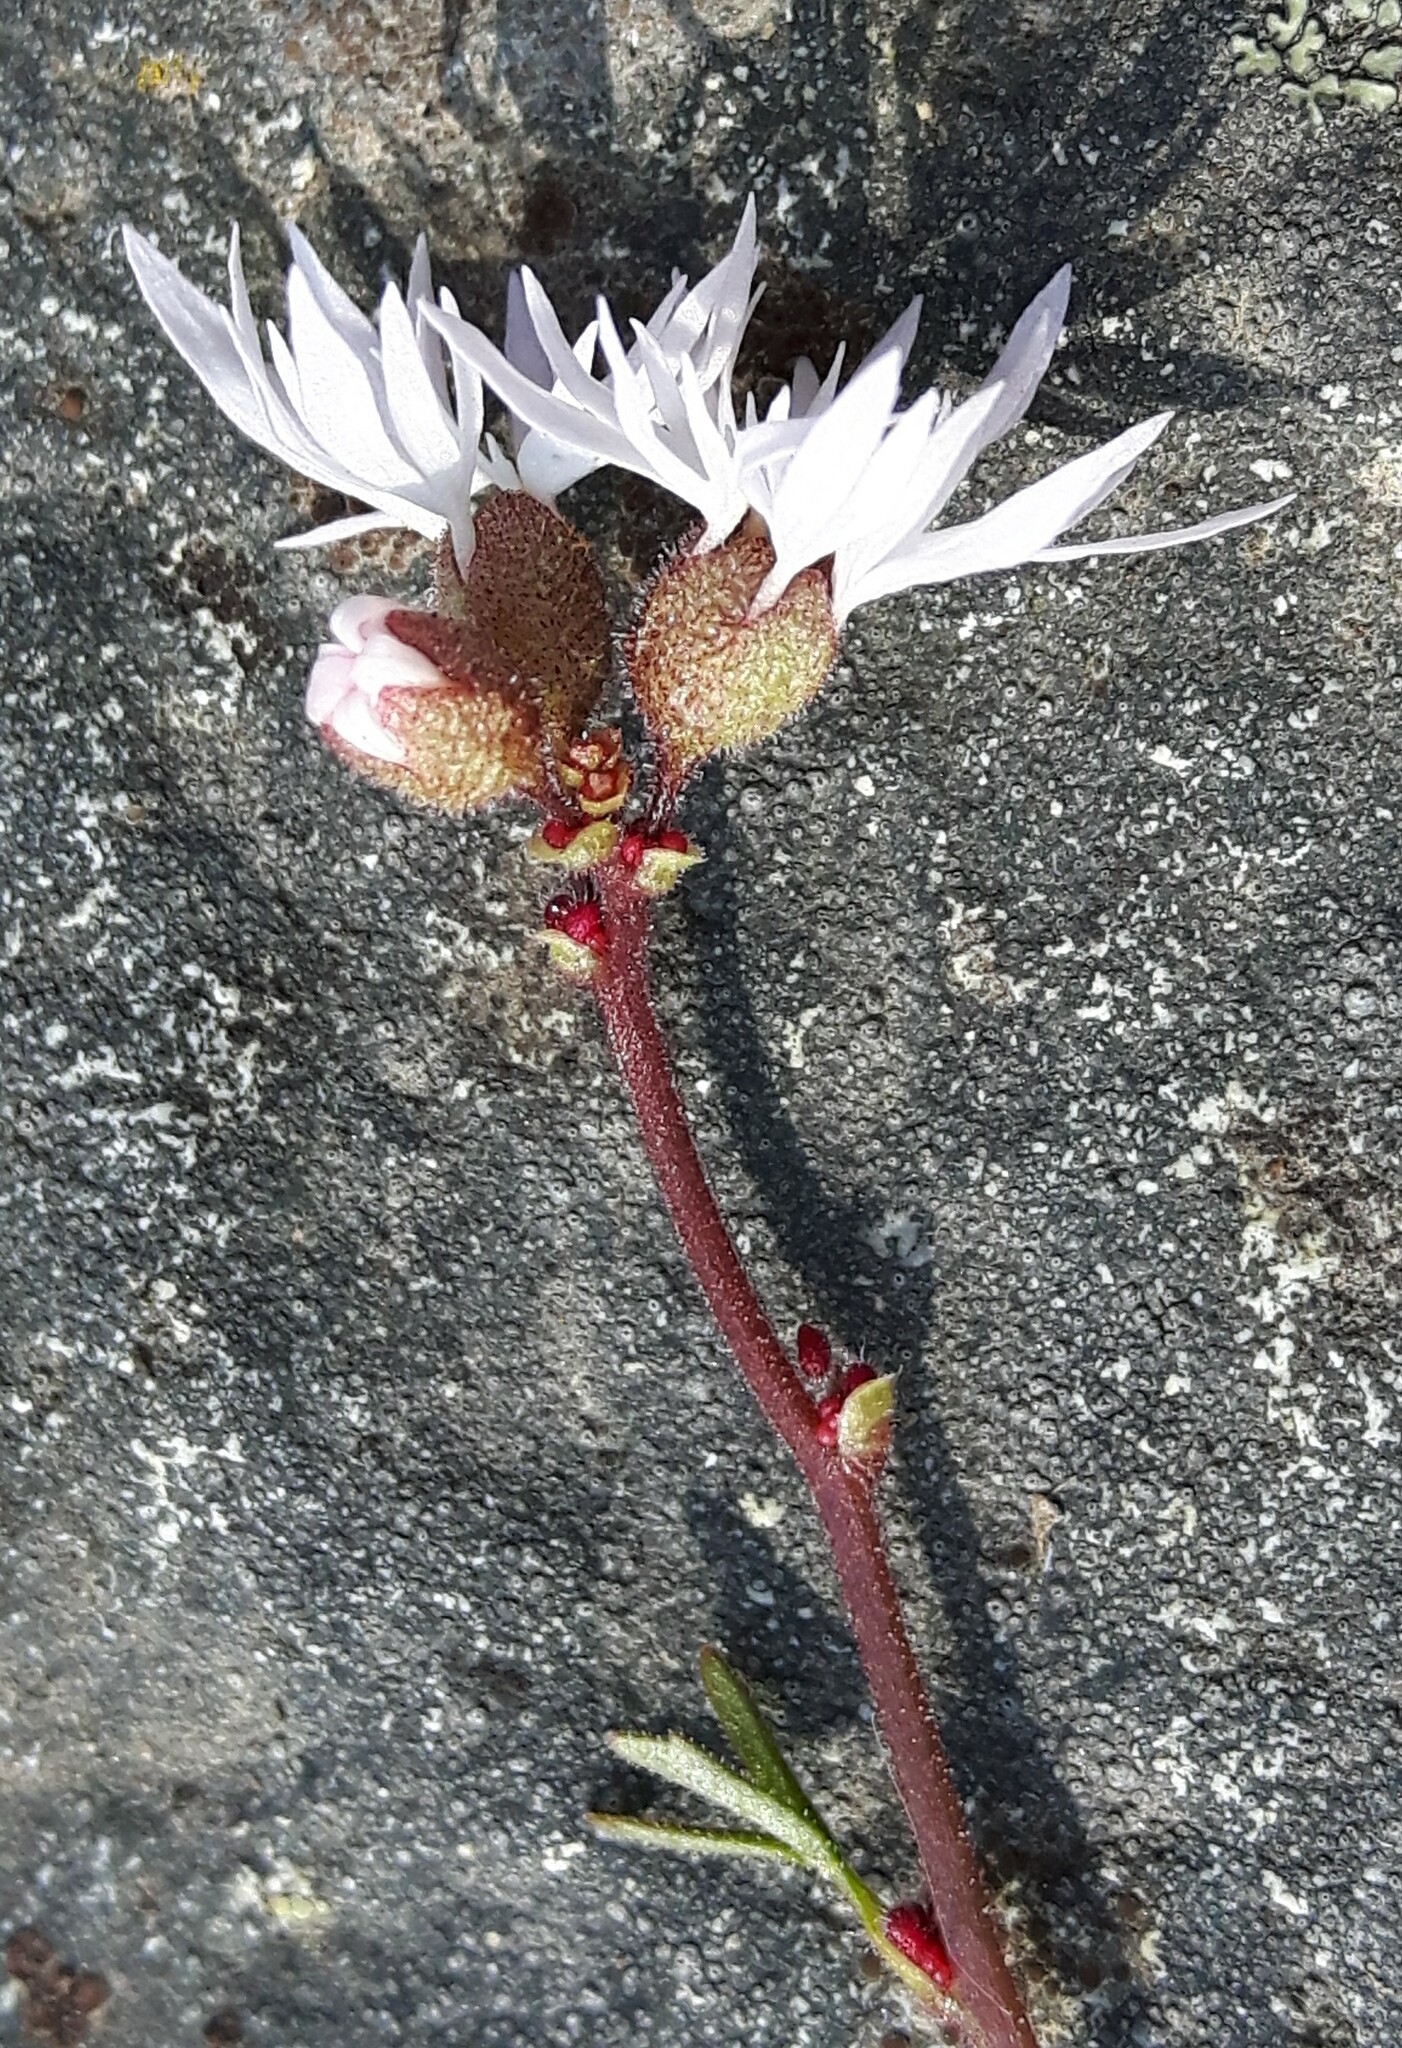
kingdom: Plantae
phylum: Tracheophyta
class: Magnoliopsida
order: Saxifragales
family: Saxifragaceae
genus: Lithophragma
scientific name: Lithophragma glabrum
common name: Bulbous prairie-star
